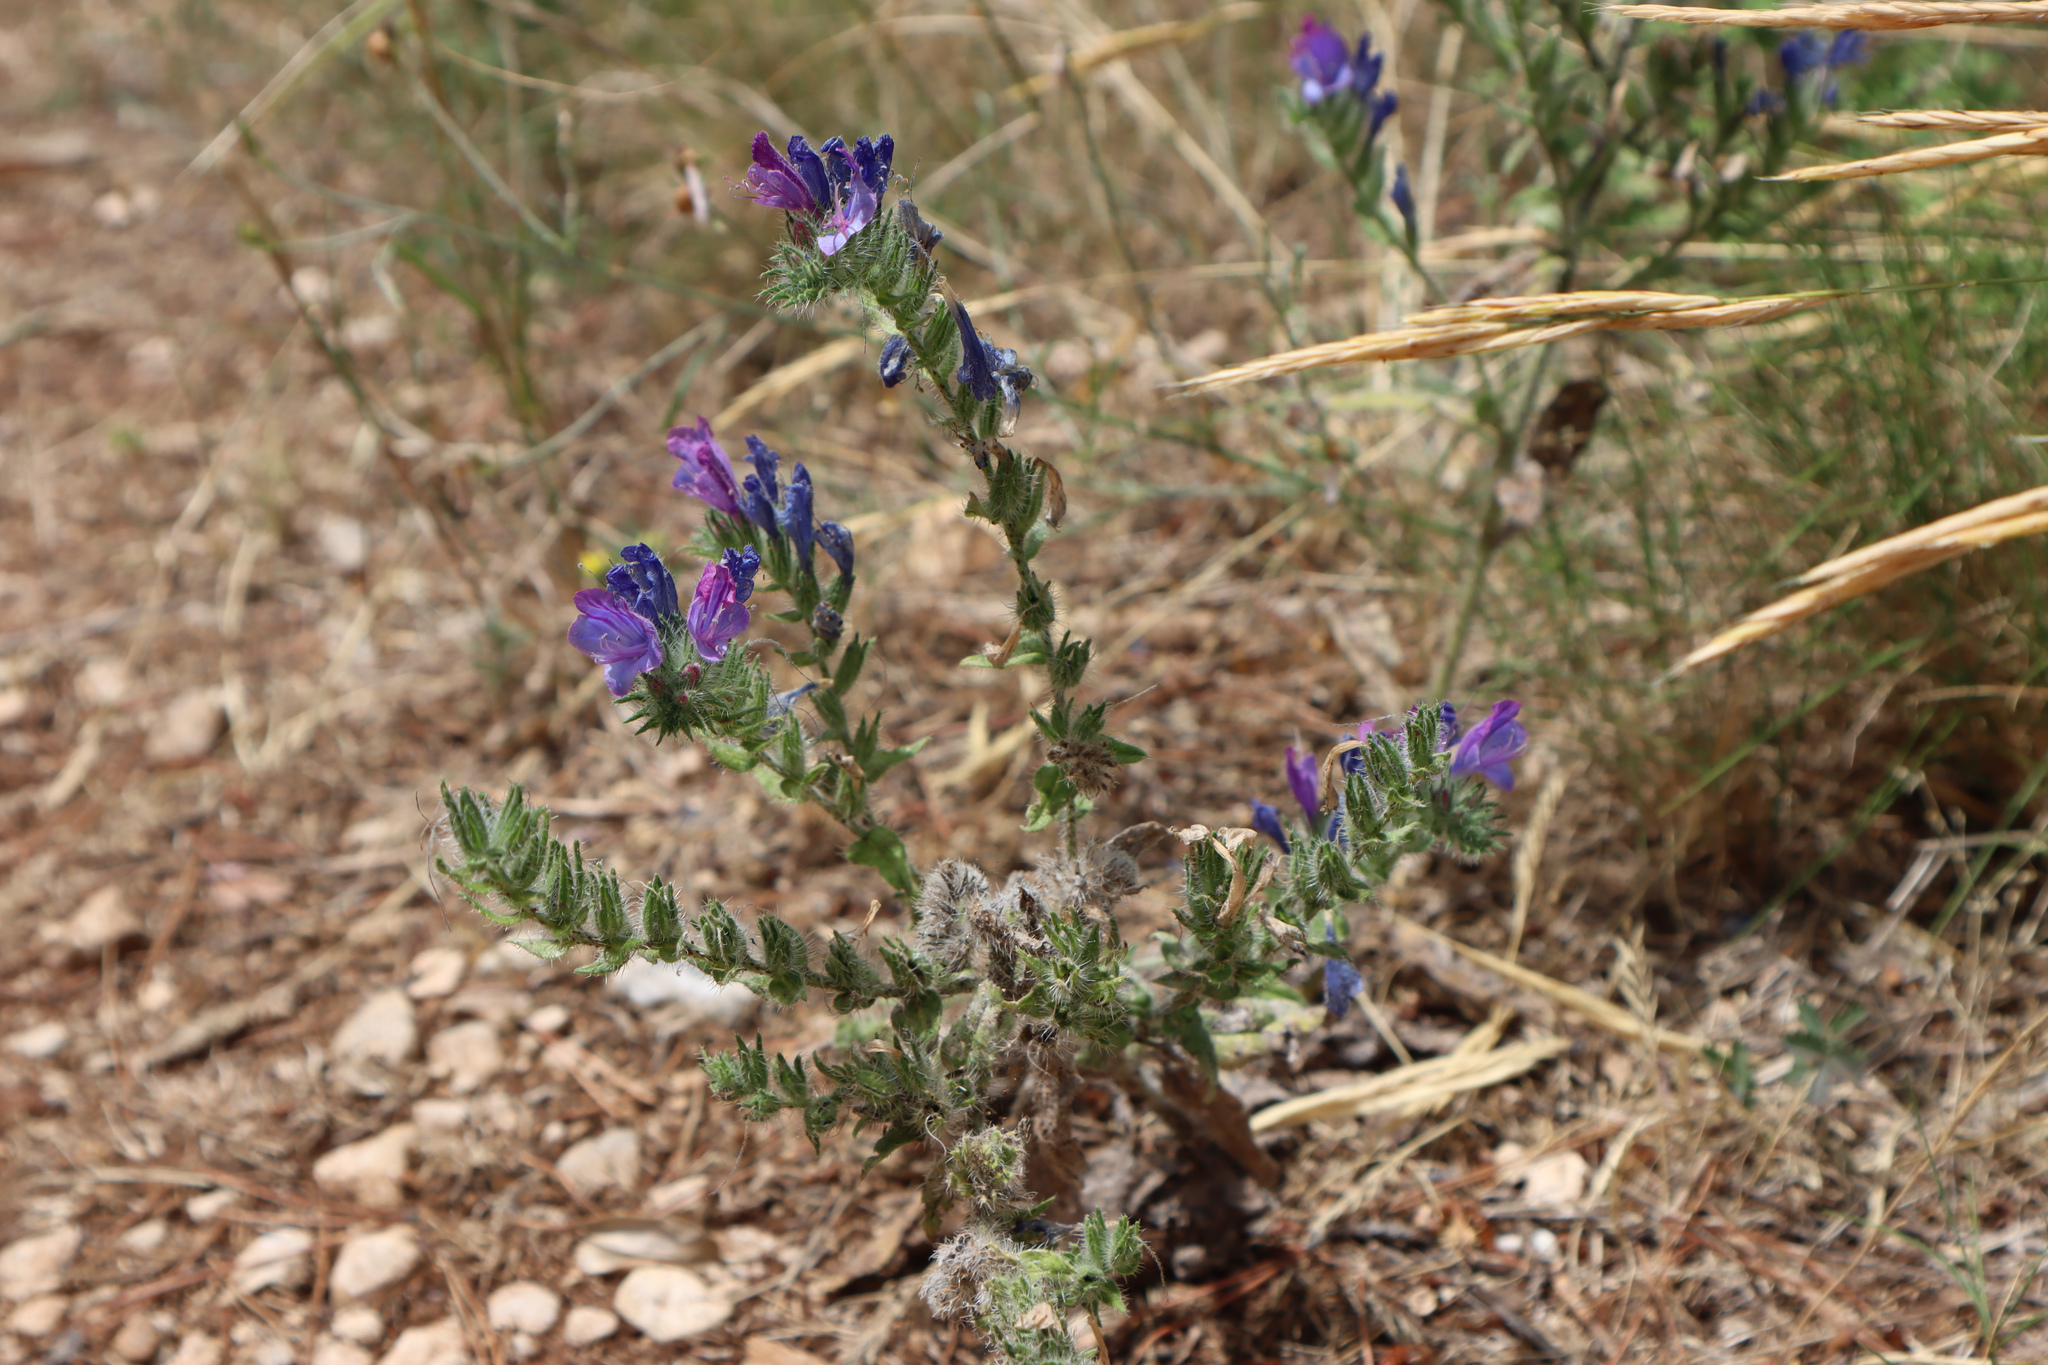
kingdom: Plantae
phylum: Tracheophyta
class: Magnoliopsida
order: Boraginales
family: Boraginaceae
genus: Echium
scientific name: Echium vulgare
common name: Common viper's bugloss
